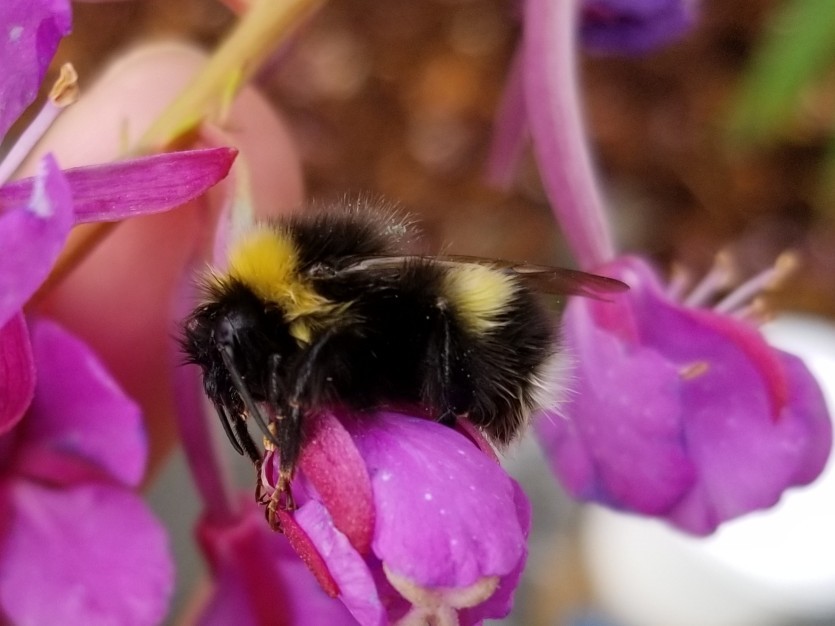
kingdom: Animalia
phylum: Arthropoda
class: Insecta
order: Hymenoptera
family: Apidae
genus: Bombus
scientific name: Bombus cryptarum
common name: Cryptic bumblebee
